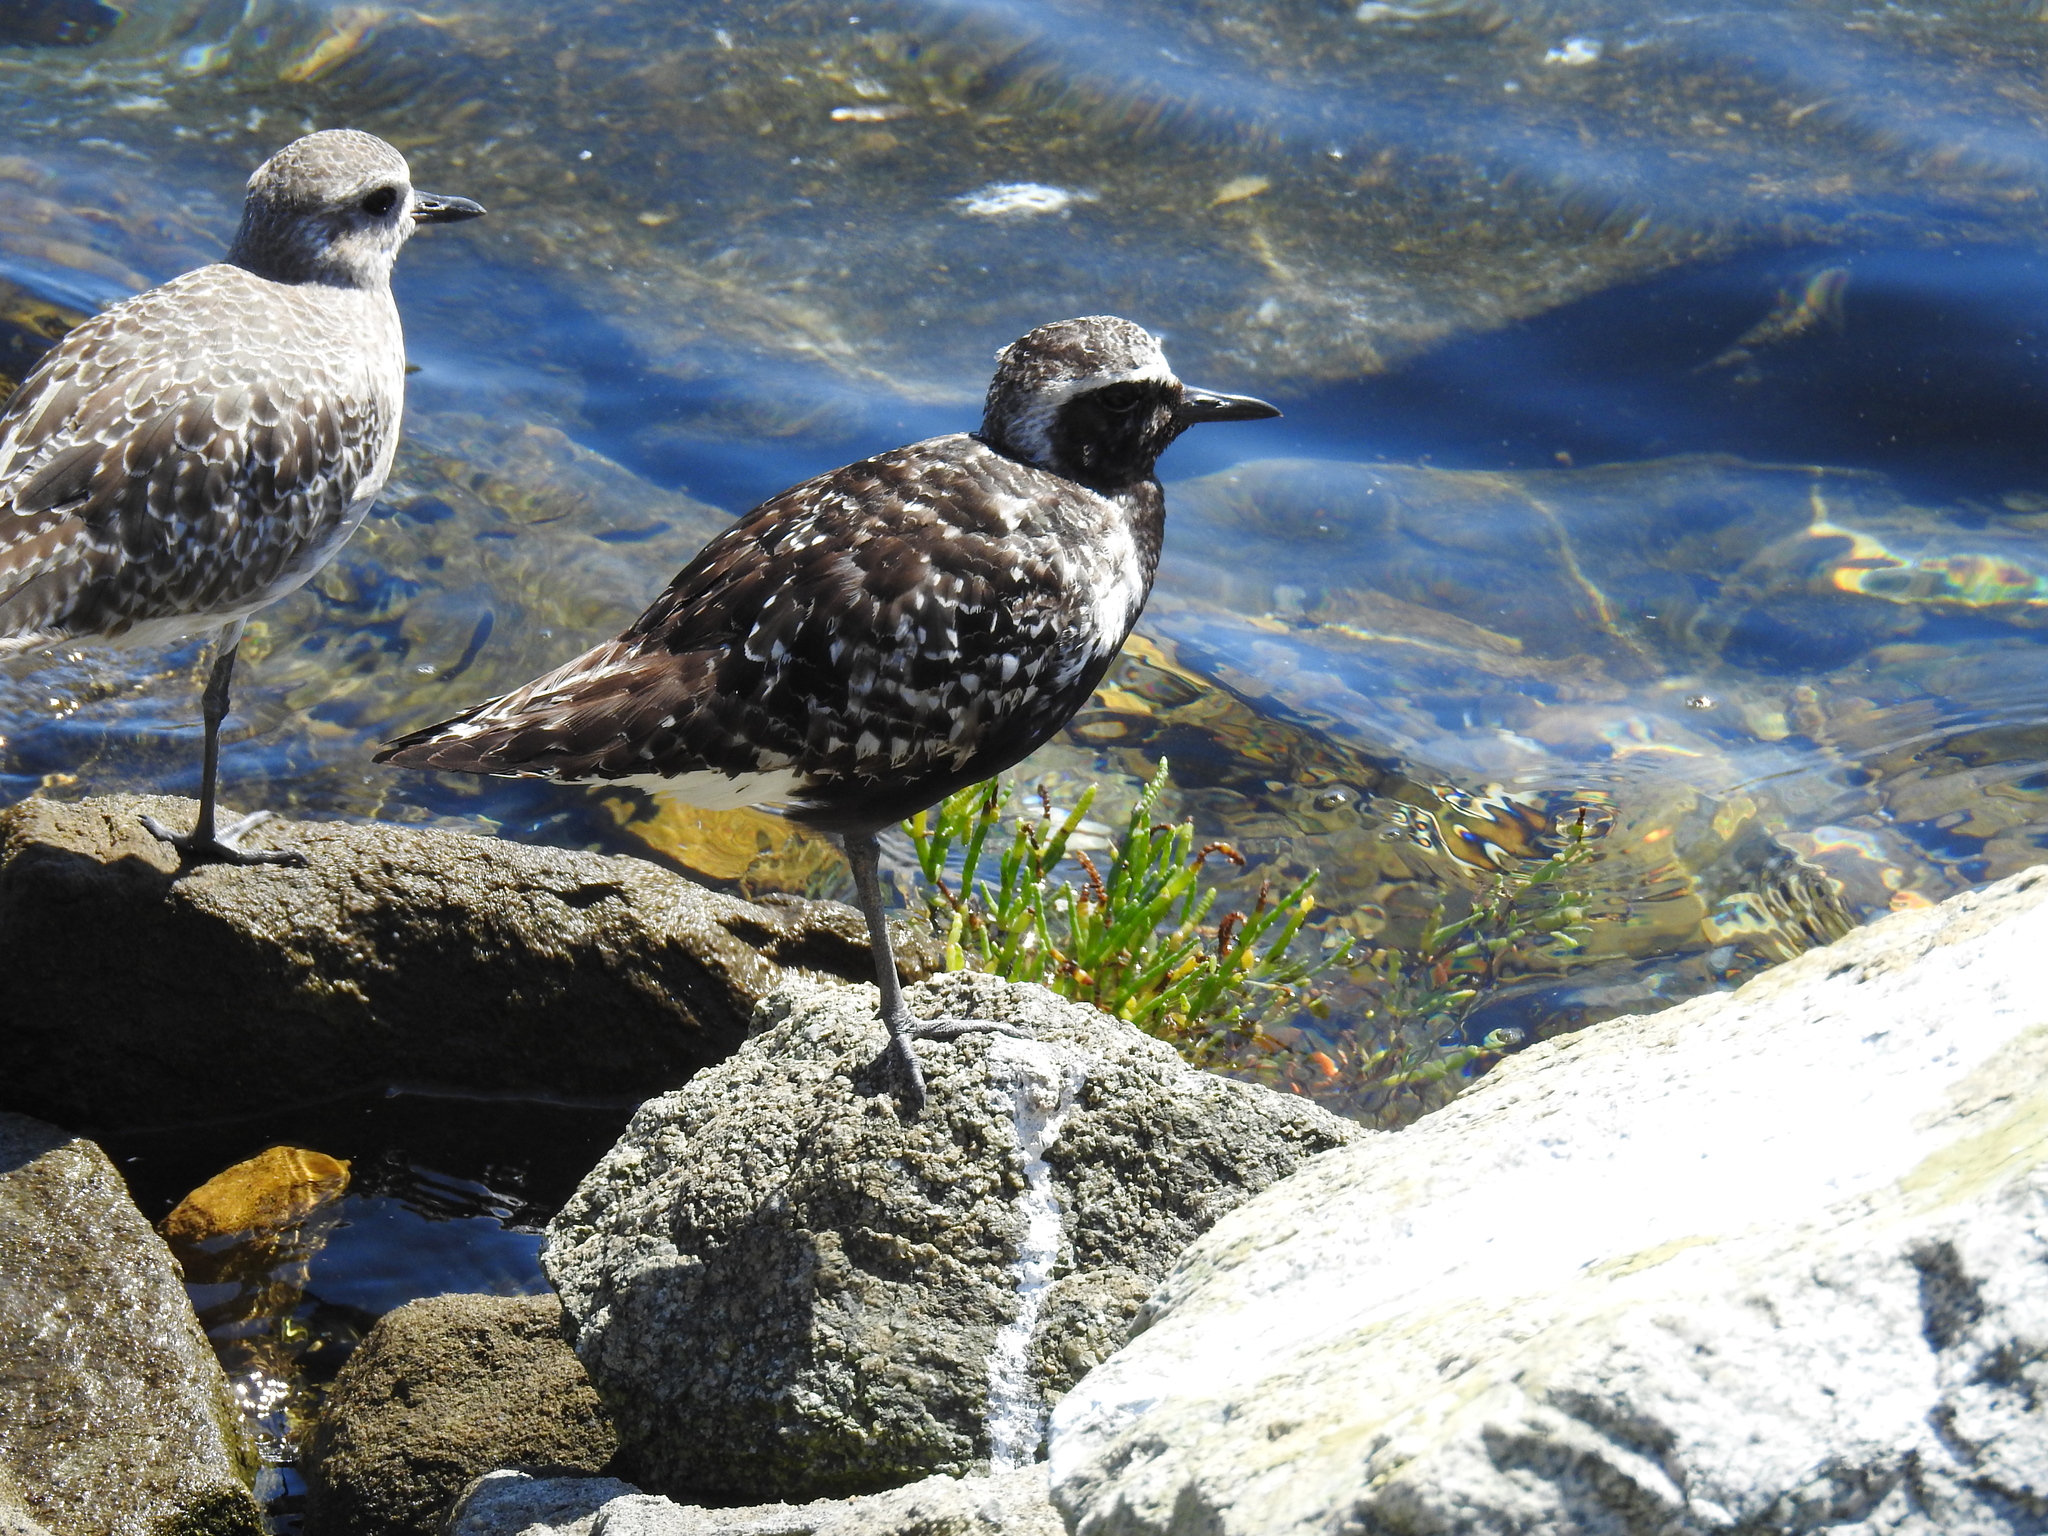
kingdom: Animalia
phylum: Chordata
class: Aves
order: Charadriiformes
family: Charadriidae
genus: Pluvialis
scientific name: Pluvialis squatarola
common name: Grey plover
